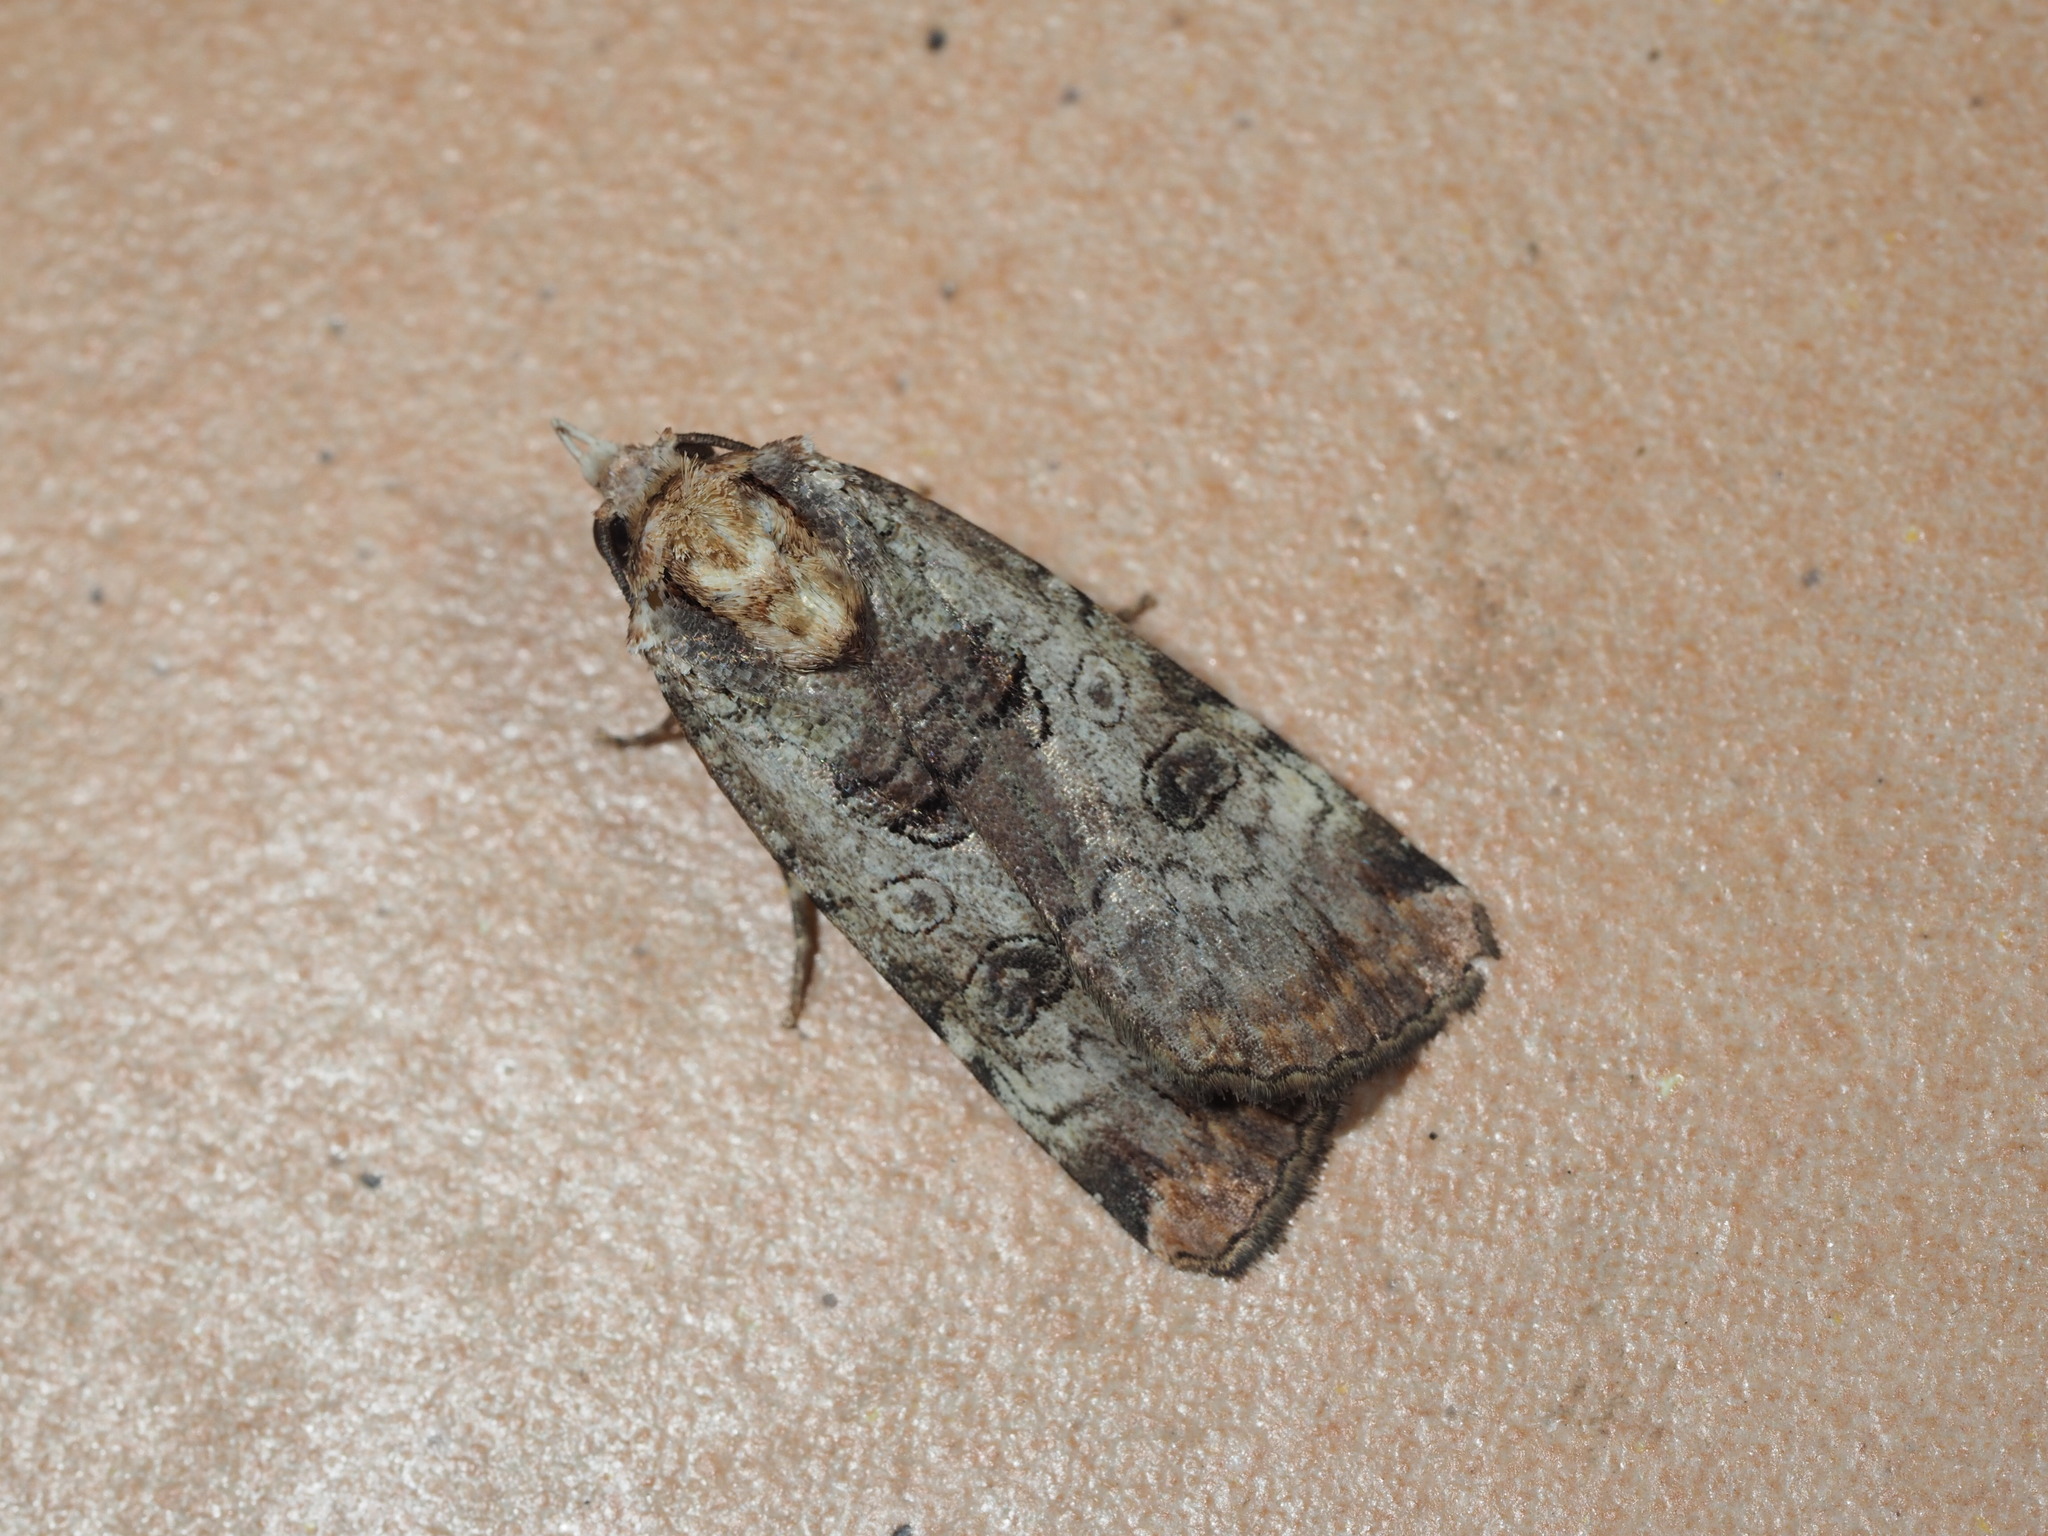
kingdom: Animalia
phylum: Arthropoda
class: Insecta
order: Lepidoptera
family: Noctuidae
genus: Epilecta
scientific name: Epilecta linogrisea
